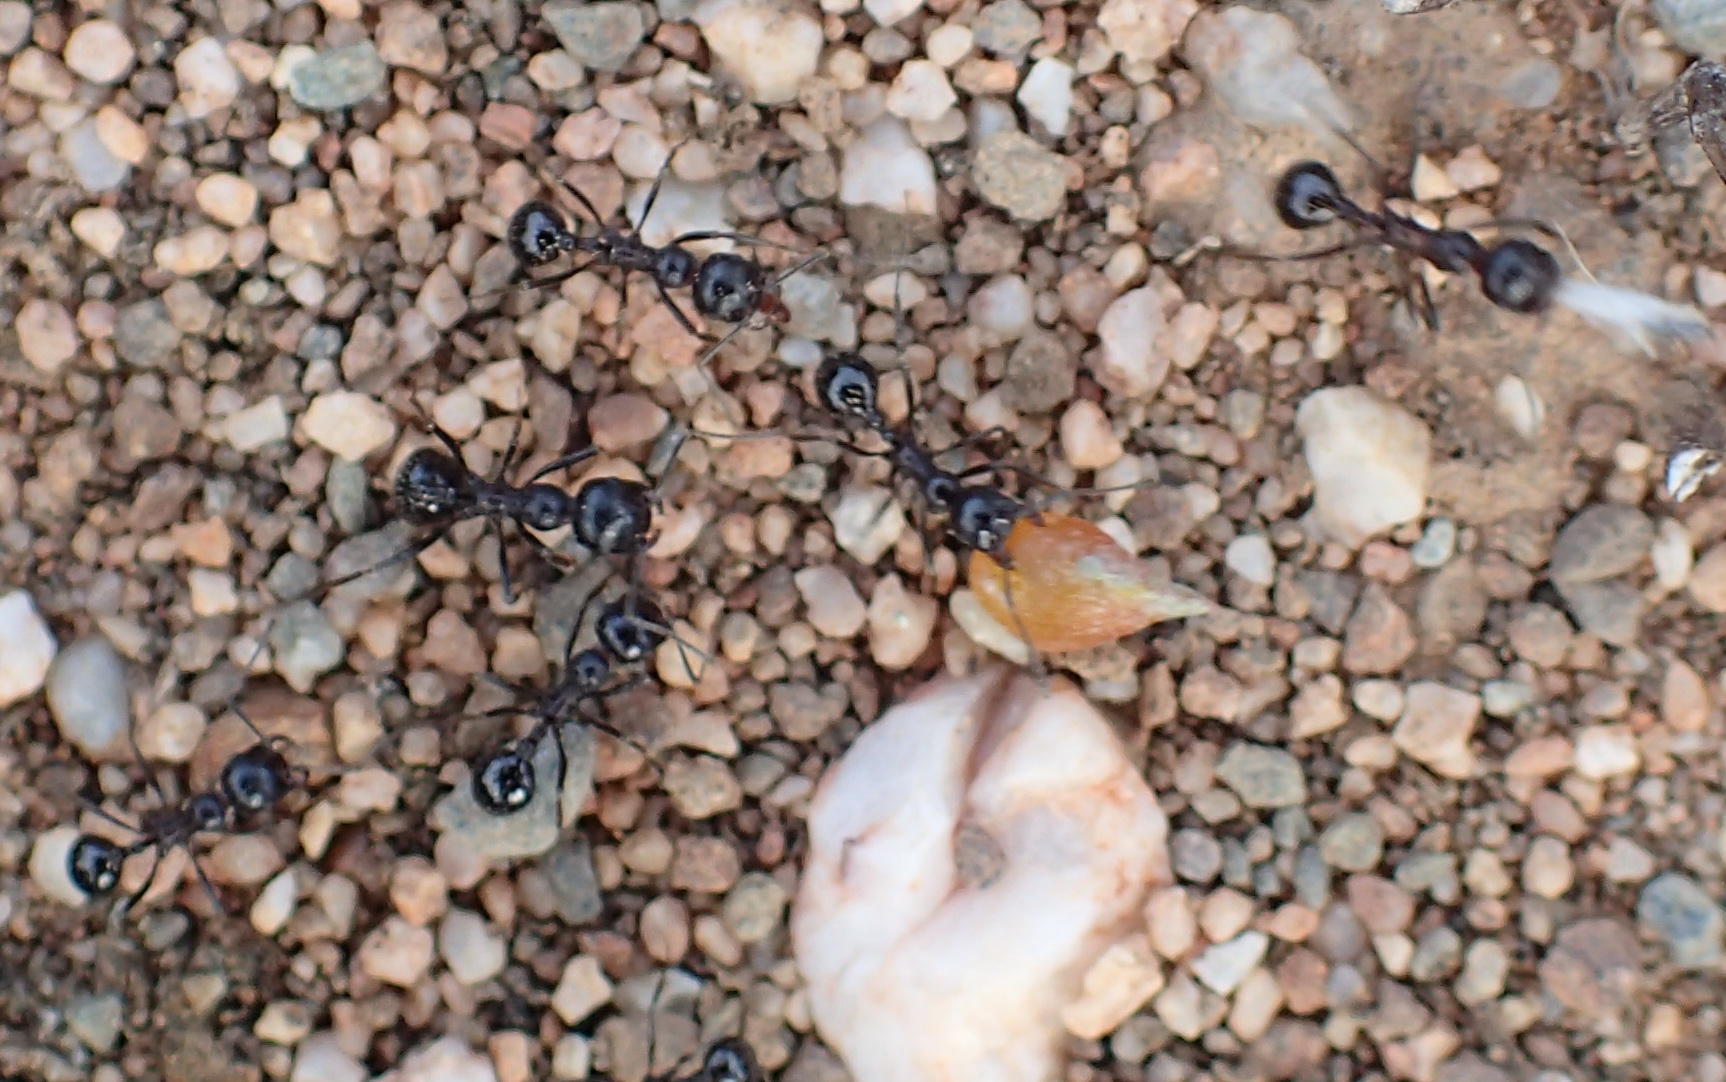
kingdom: Animalia
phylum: Arthropoda
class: Insecta
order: Hymenoptera
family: Formicidae
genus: Messor
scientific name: Messor capensis
